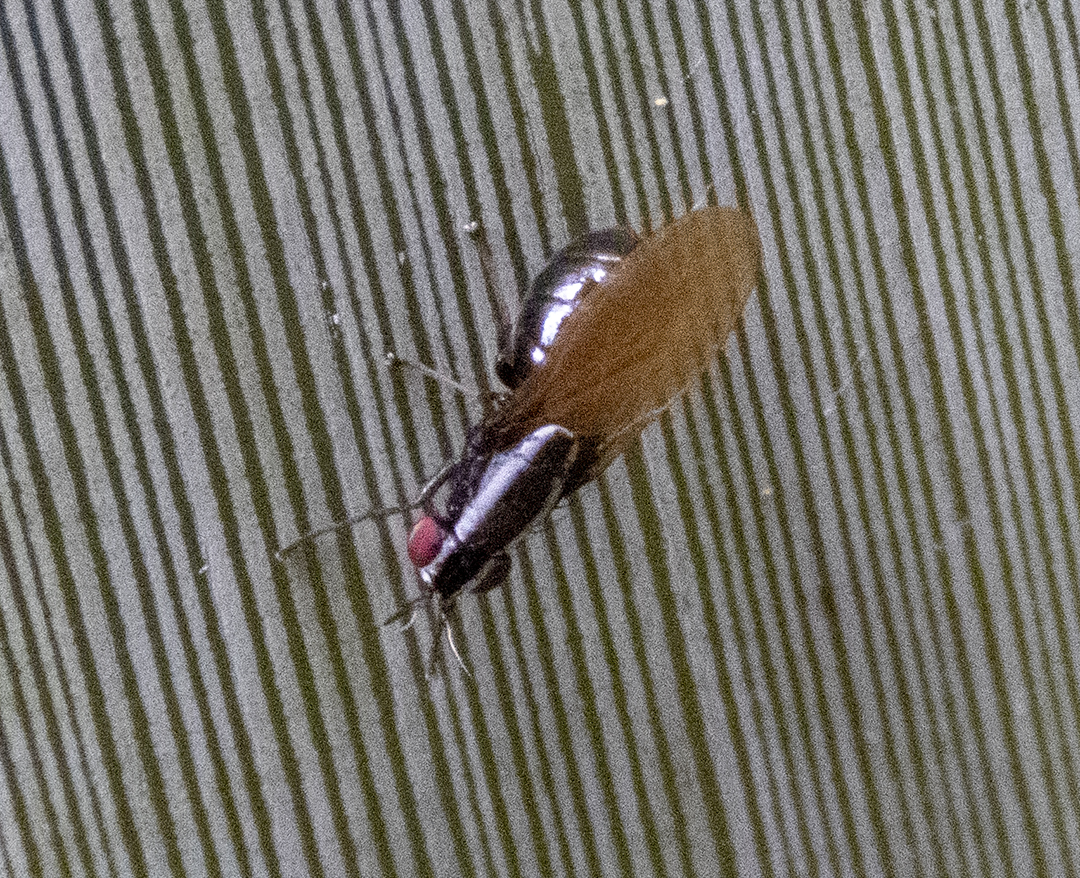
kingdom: Animalia
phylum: Arthropoda
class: Insecta
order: Diptera
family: Lauxaniidae
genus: Poecilohetaerella
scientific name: Poecilohetaerella bilineata
